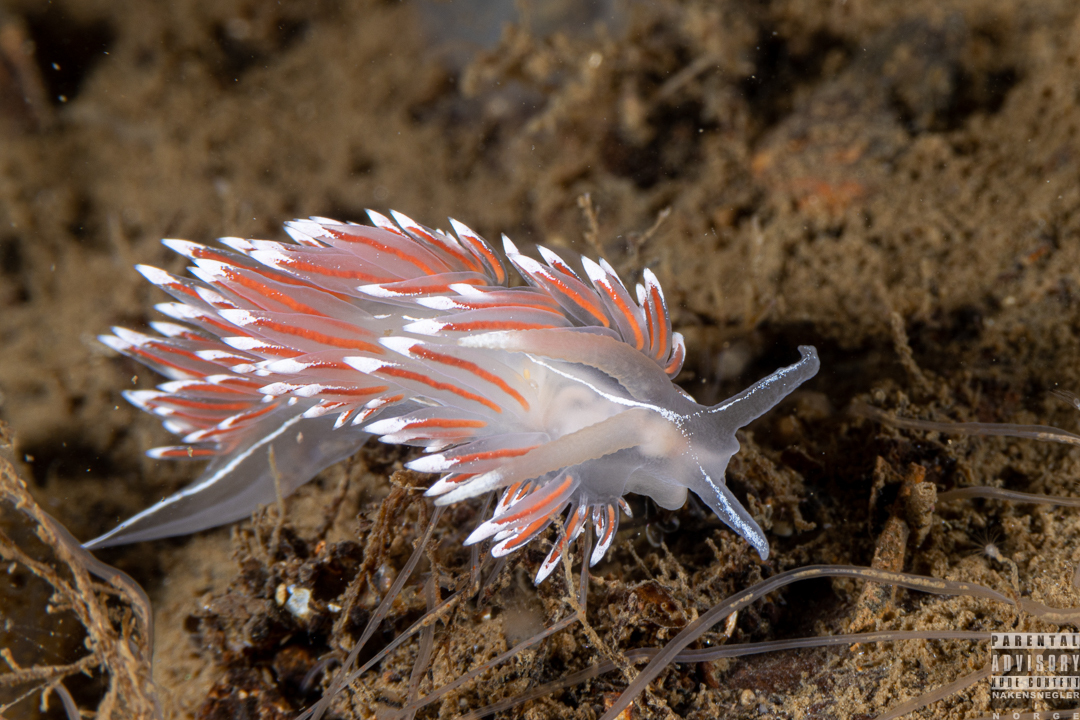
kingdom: Animalia
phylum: Mollusca
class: Gastropoda
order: Nudibranchia
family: Coryphellidae
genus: Coryphella
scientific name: Coryphella lineata
